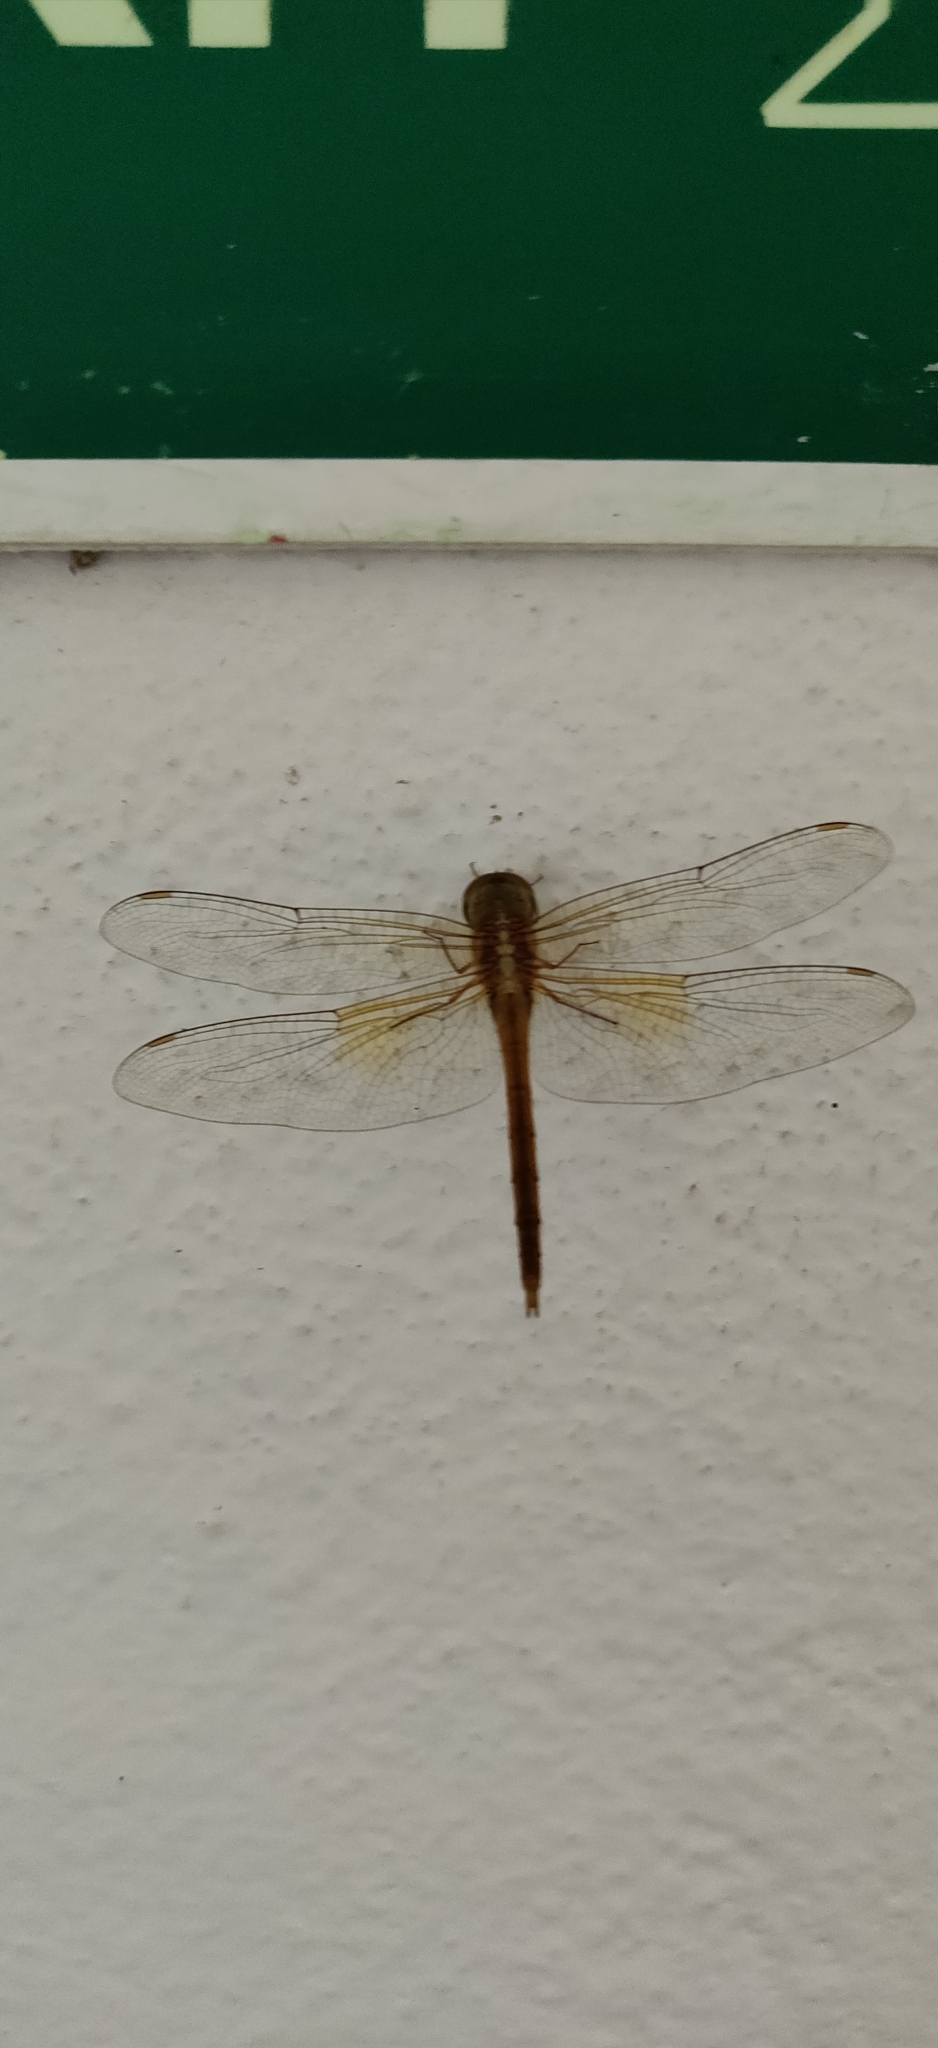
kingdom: Animalia
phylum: Arthropoda
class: Insecta
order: Odonata
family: Libellulidae
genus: Tholymis
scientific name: Tholymis tillarga
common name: Coral-tailed cloud wing
